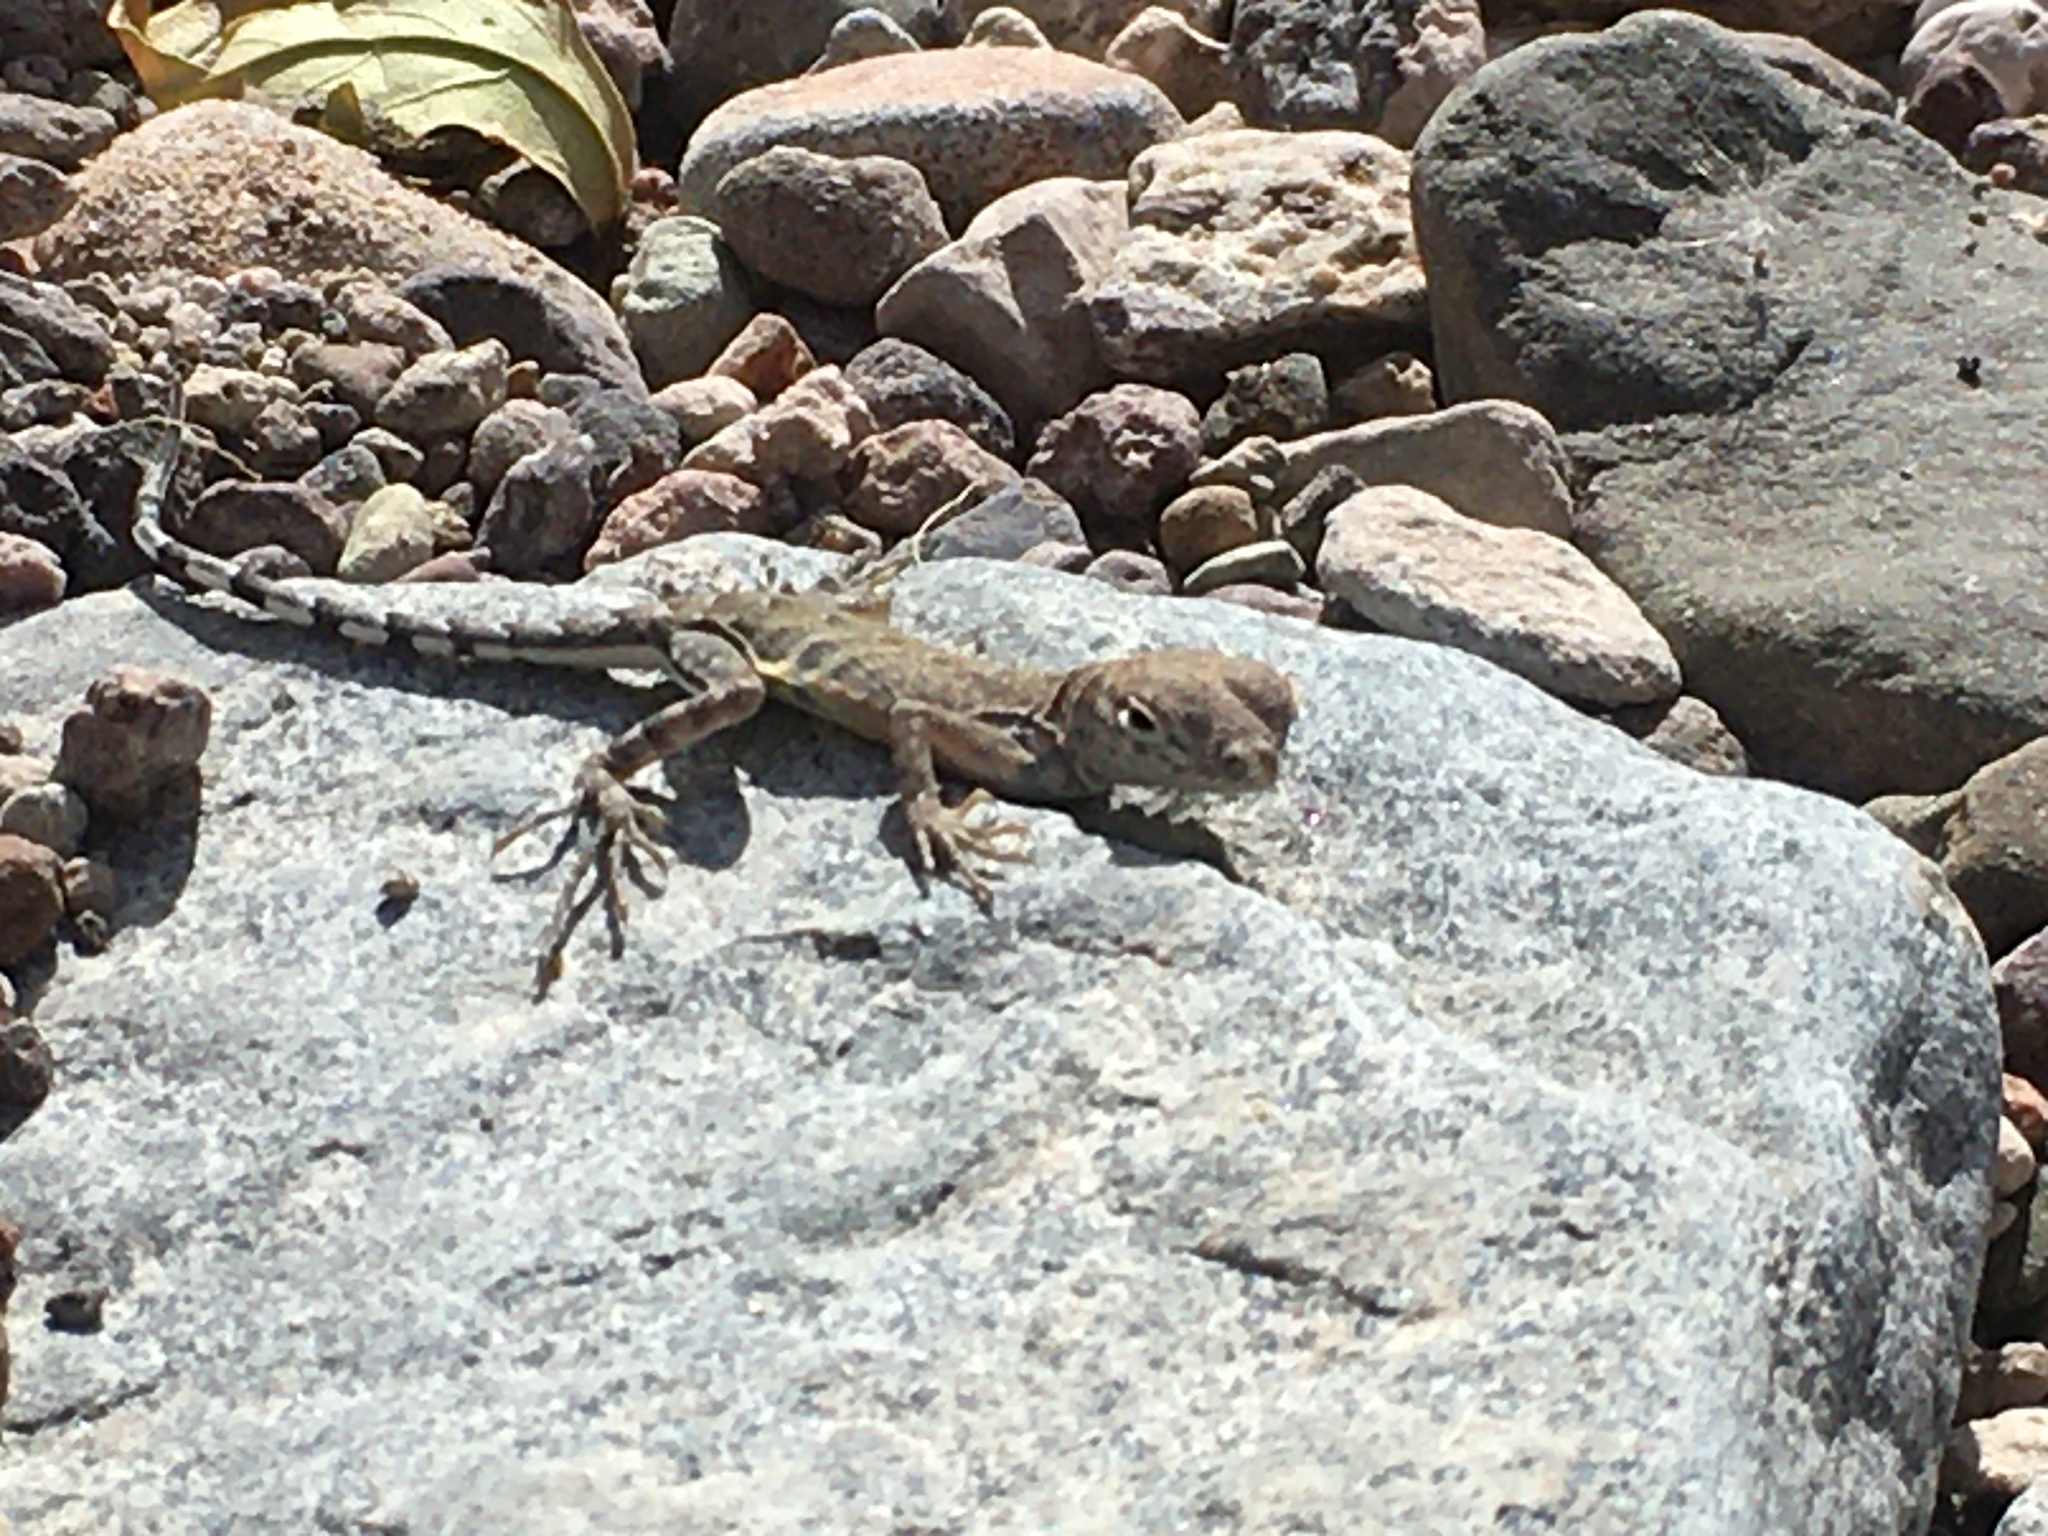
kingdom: Animalia
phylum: Chordata
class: Squamata
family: Phrynosomatidae
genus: Cophosaurus
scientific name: Cophosaurus texanus
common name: Greater earless lizard
